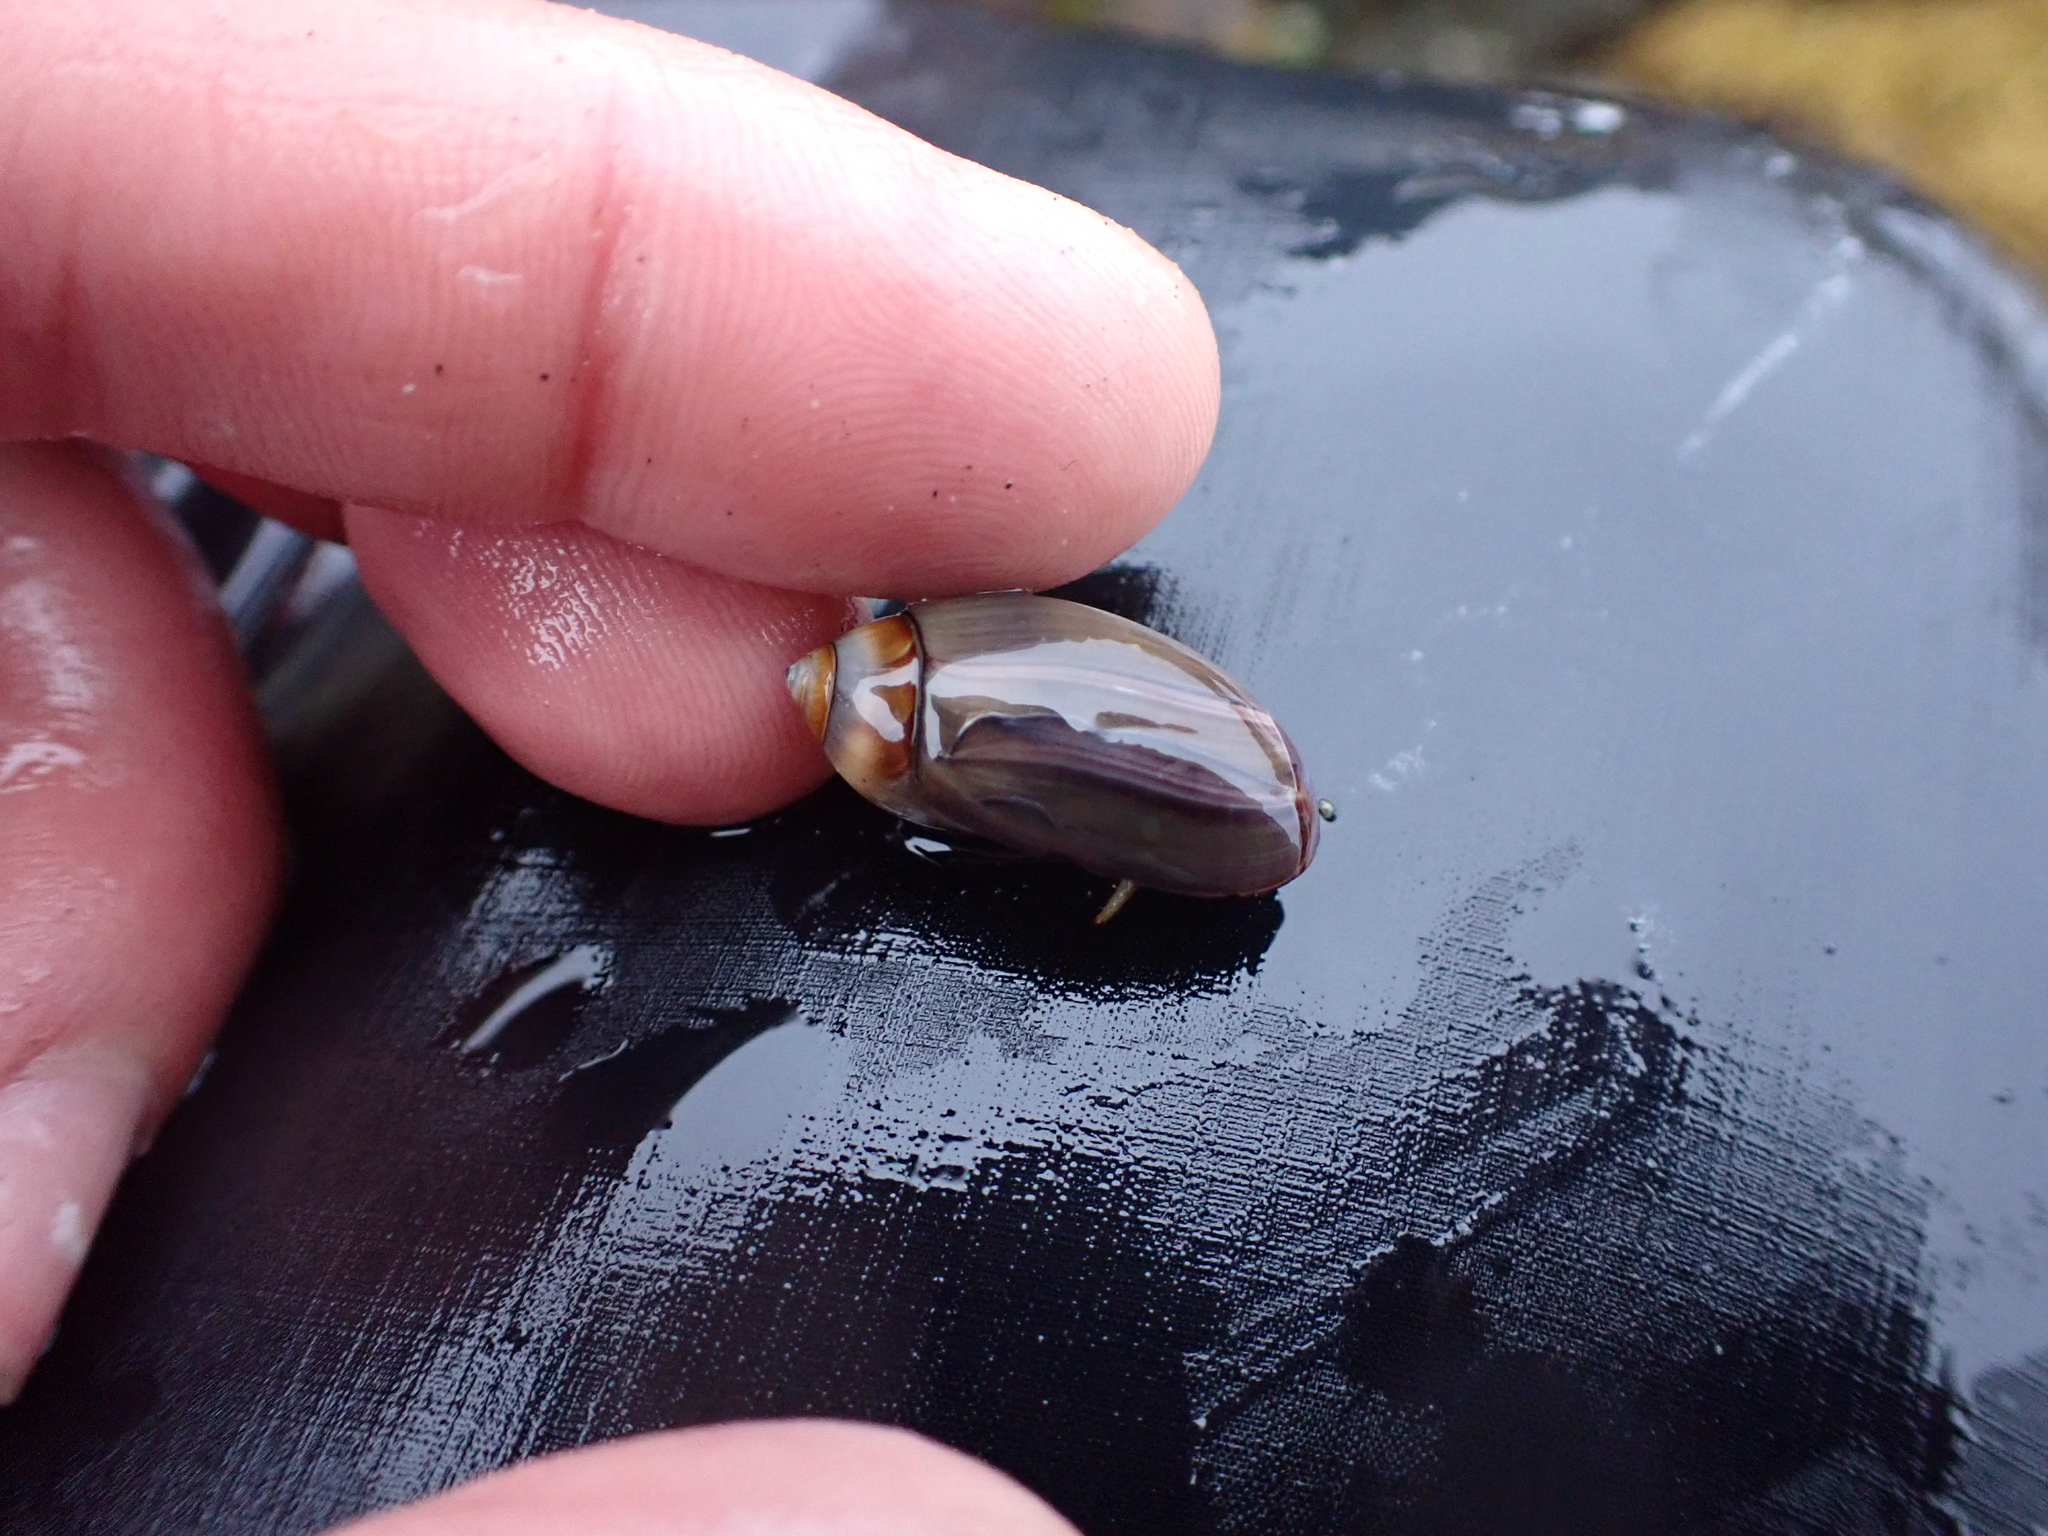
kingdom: Animalia
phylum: Mollusca
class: Gastropoda
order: Neogastropoda
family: Olividae
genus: Callianax
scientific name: Callianax biplicata
